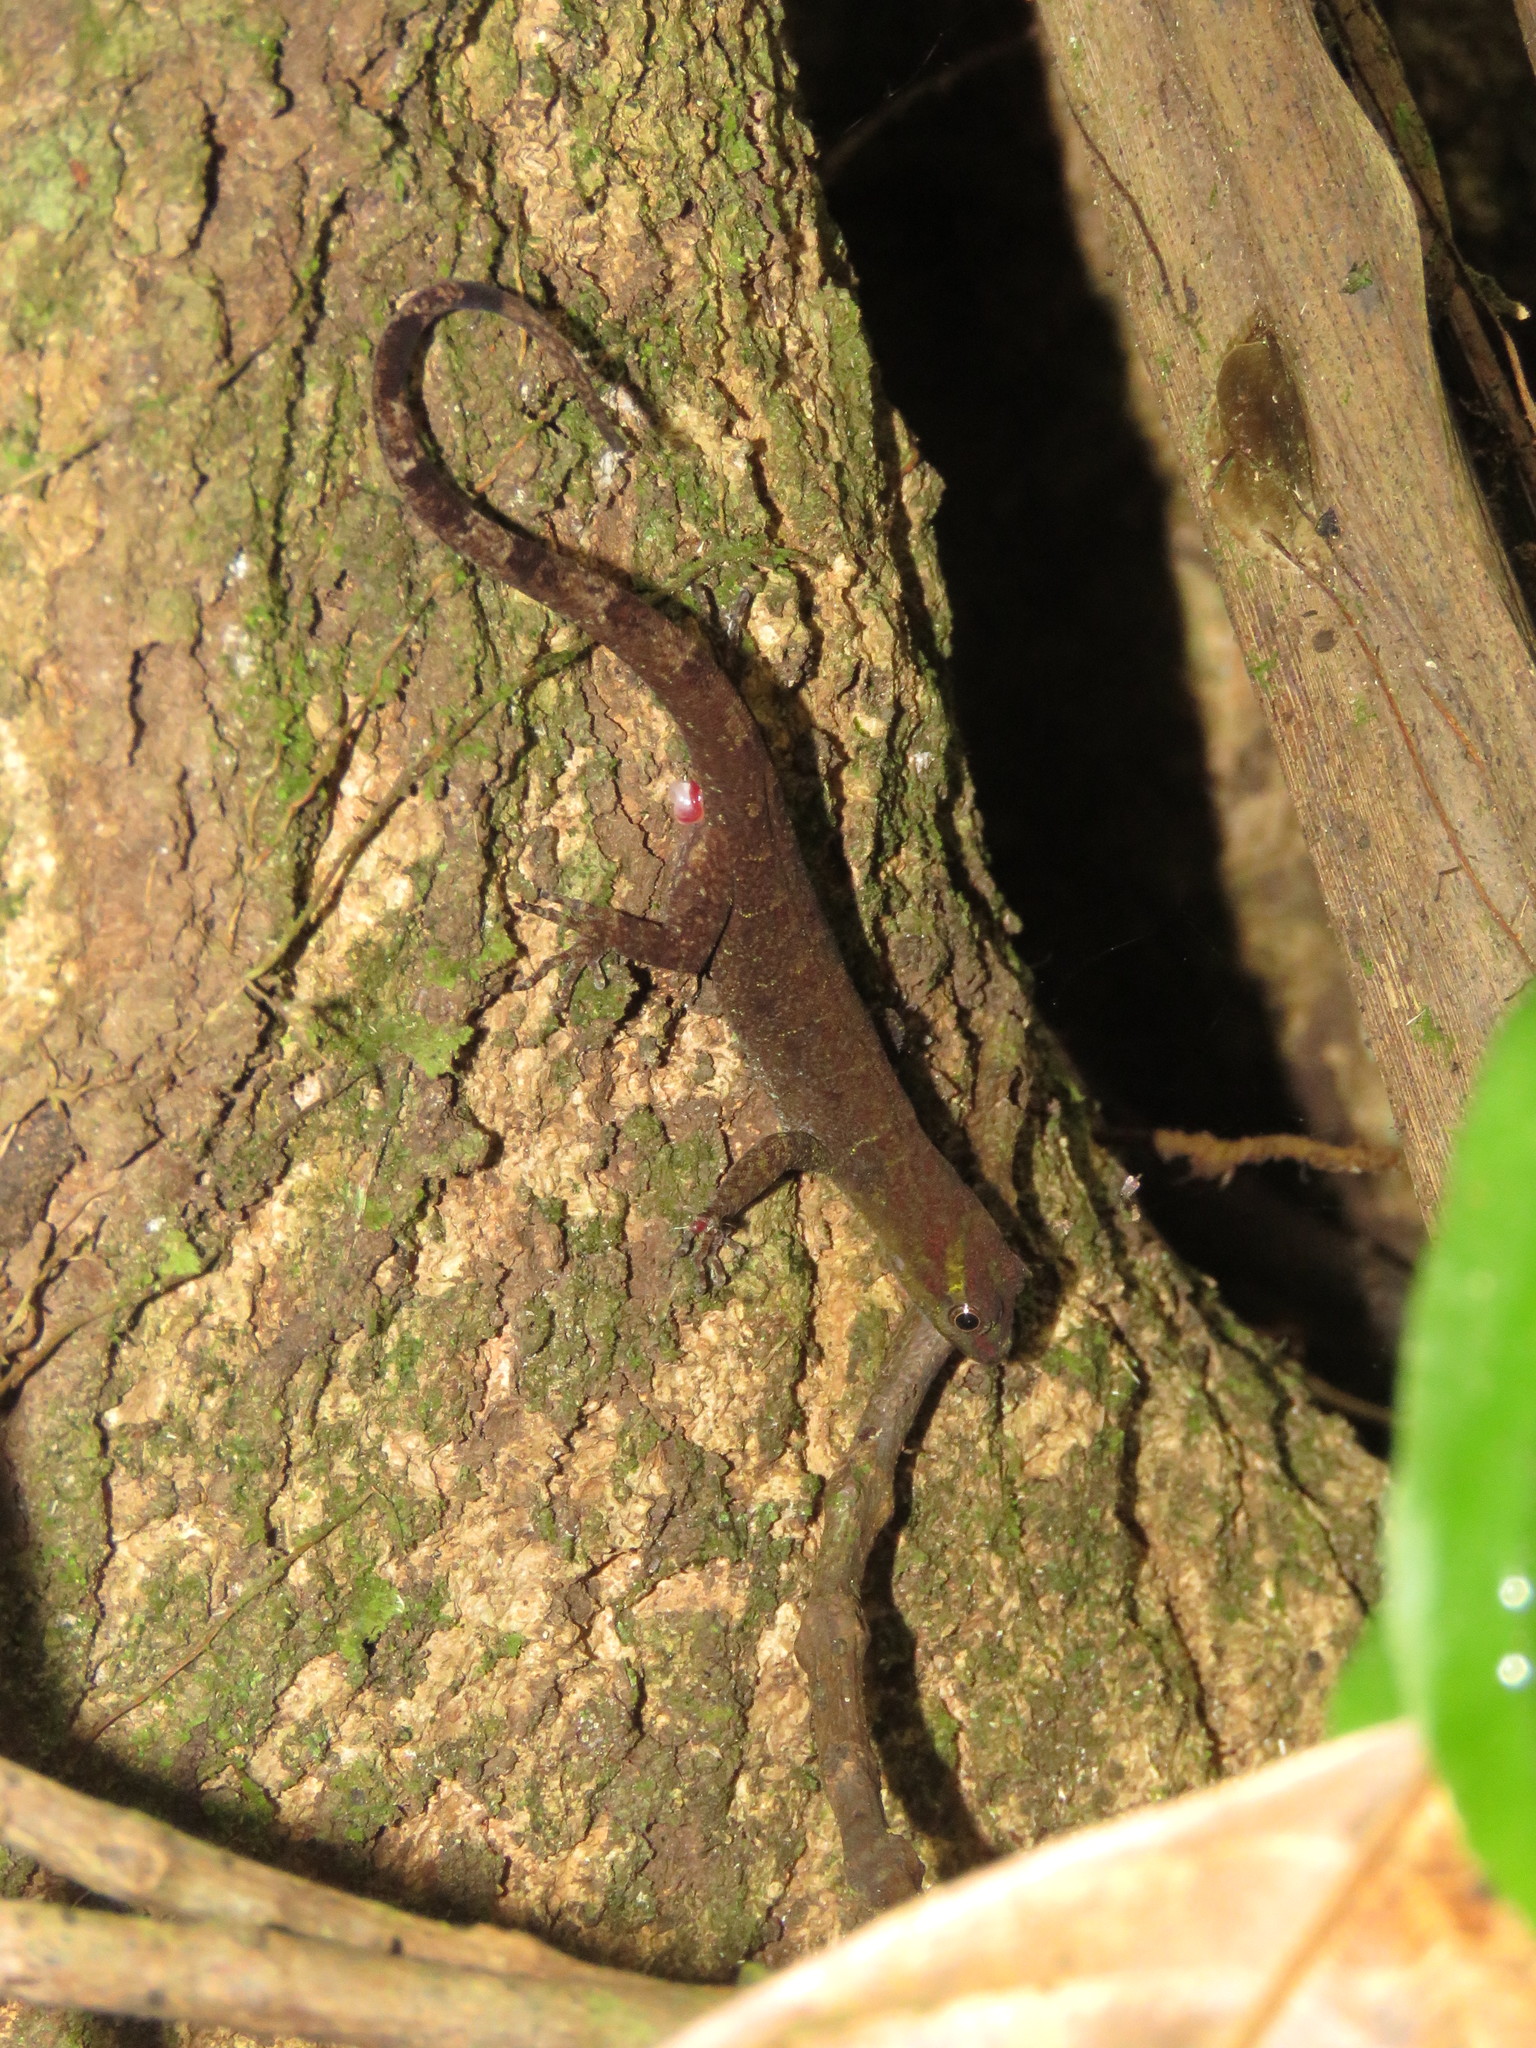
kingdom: Animalia
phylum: Chordata
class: Squamata
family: Sphaerodactylidae
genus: Gonatodes
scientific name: Gonatodes humeralis
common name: South american clawed gecko
